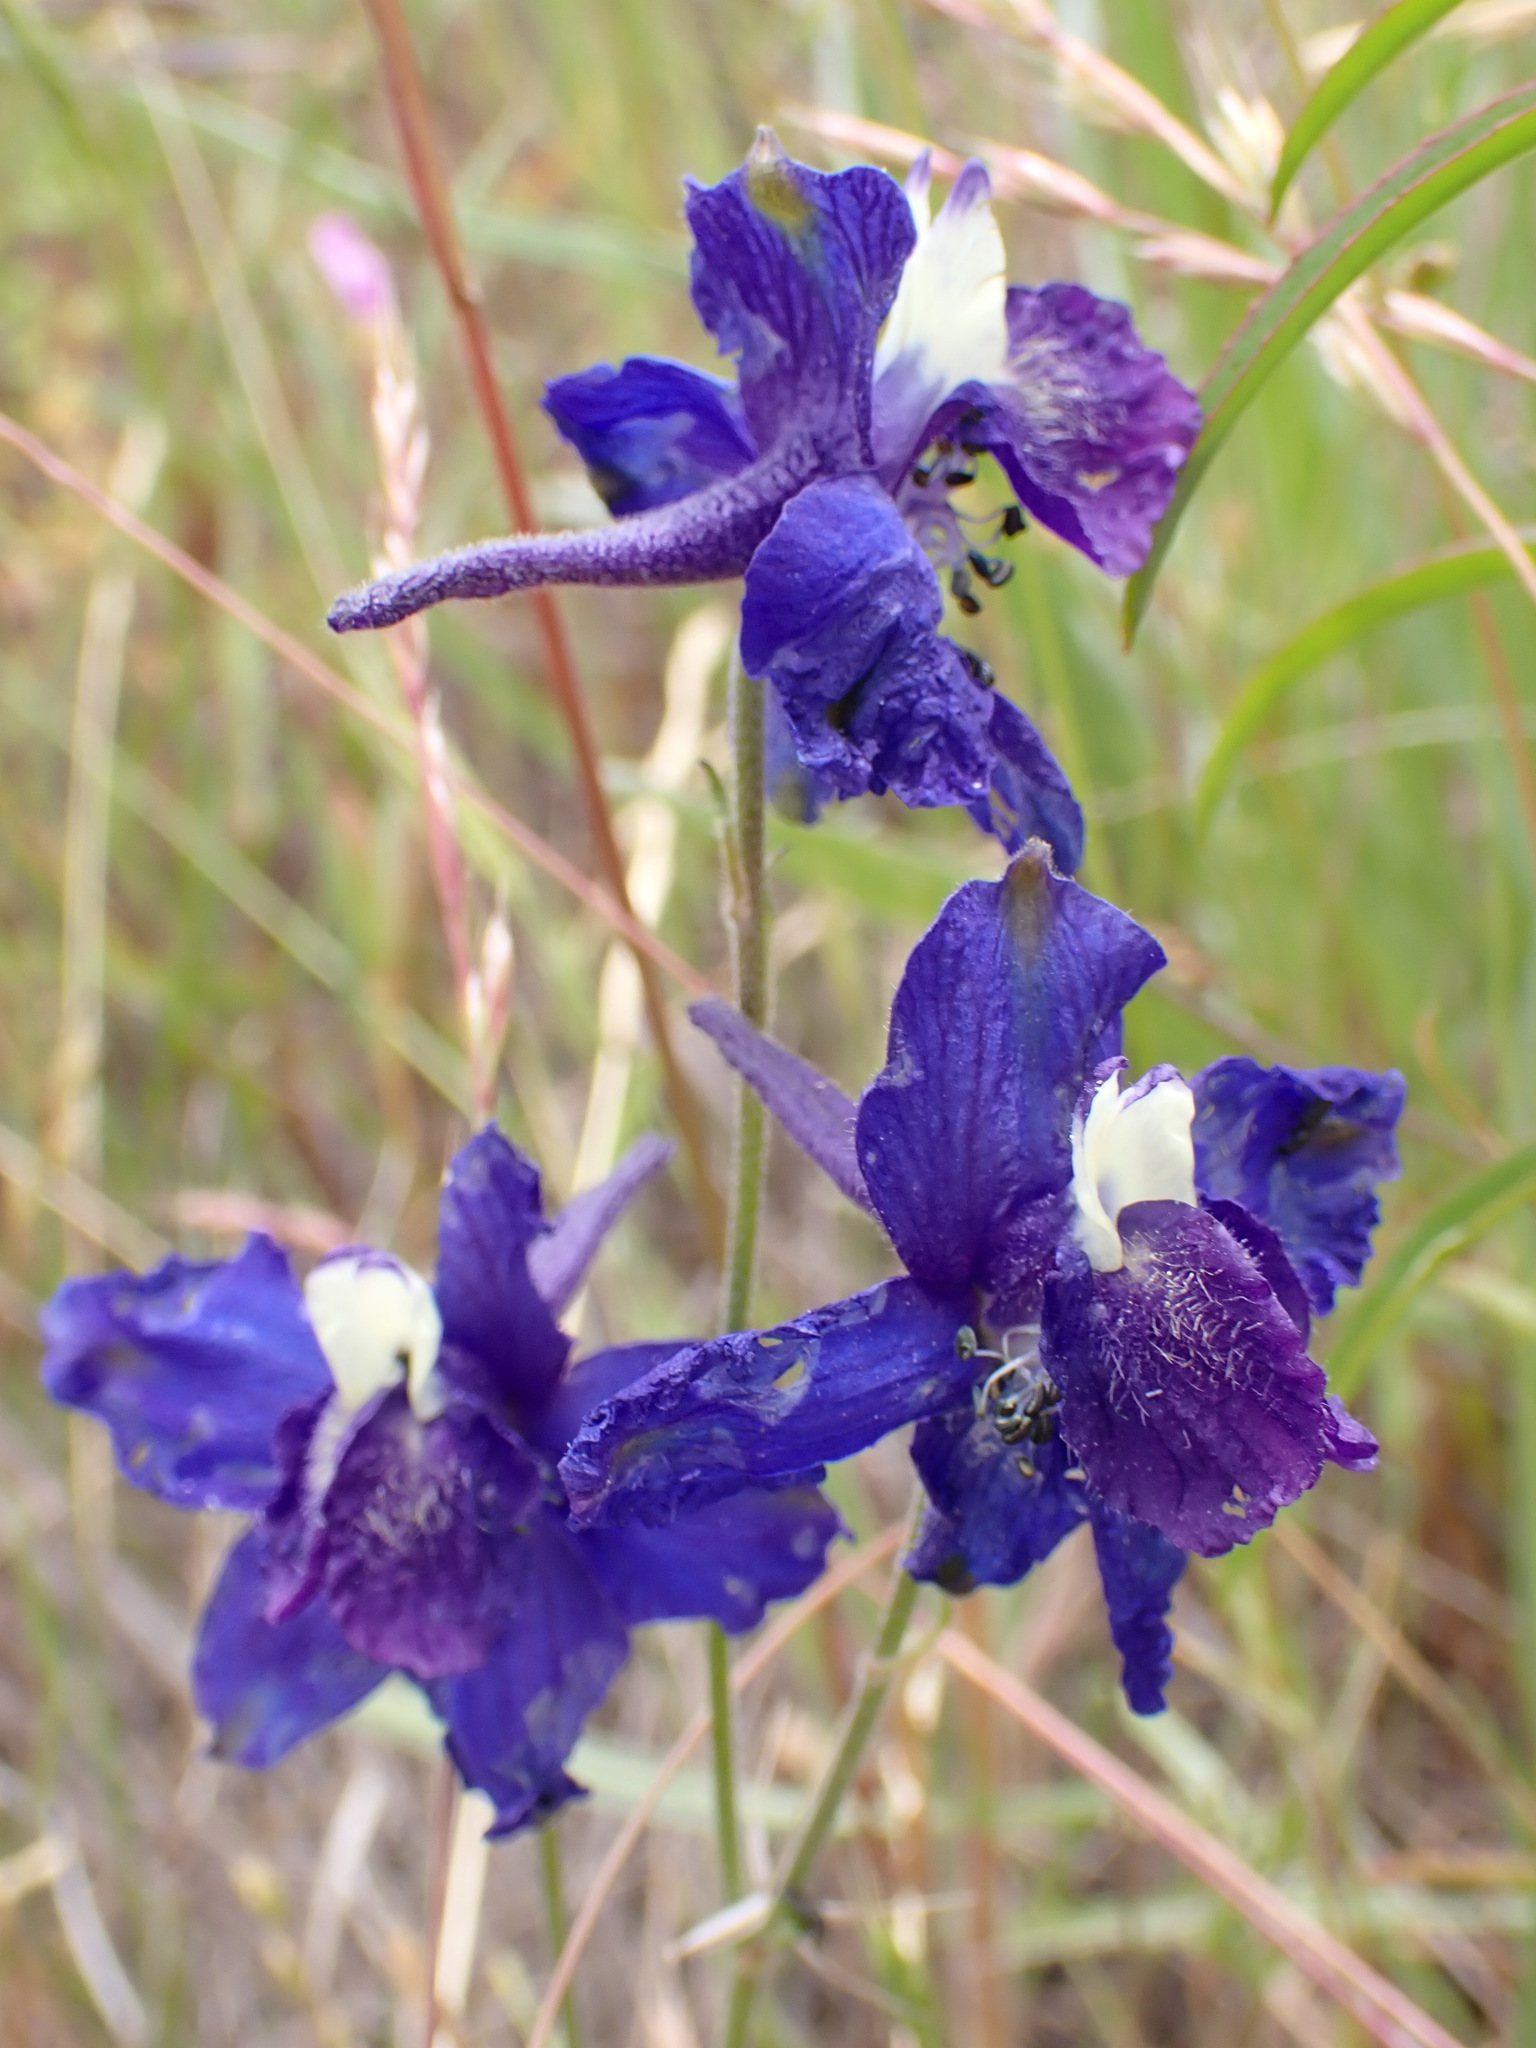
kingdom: Plantae
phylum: Tracheophyta
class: Magnoliopsida
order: Ranunculales
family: Ranunculaceae
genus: Delphinium
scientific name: Delphinium variegatum
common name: Royal larkspur
